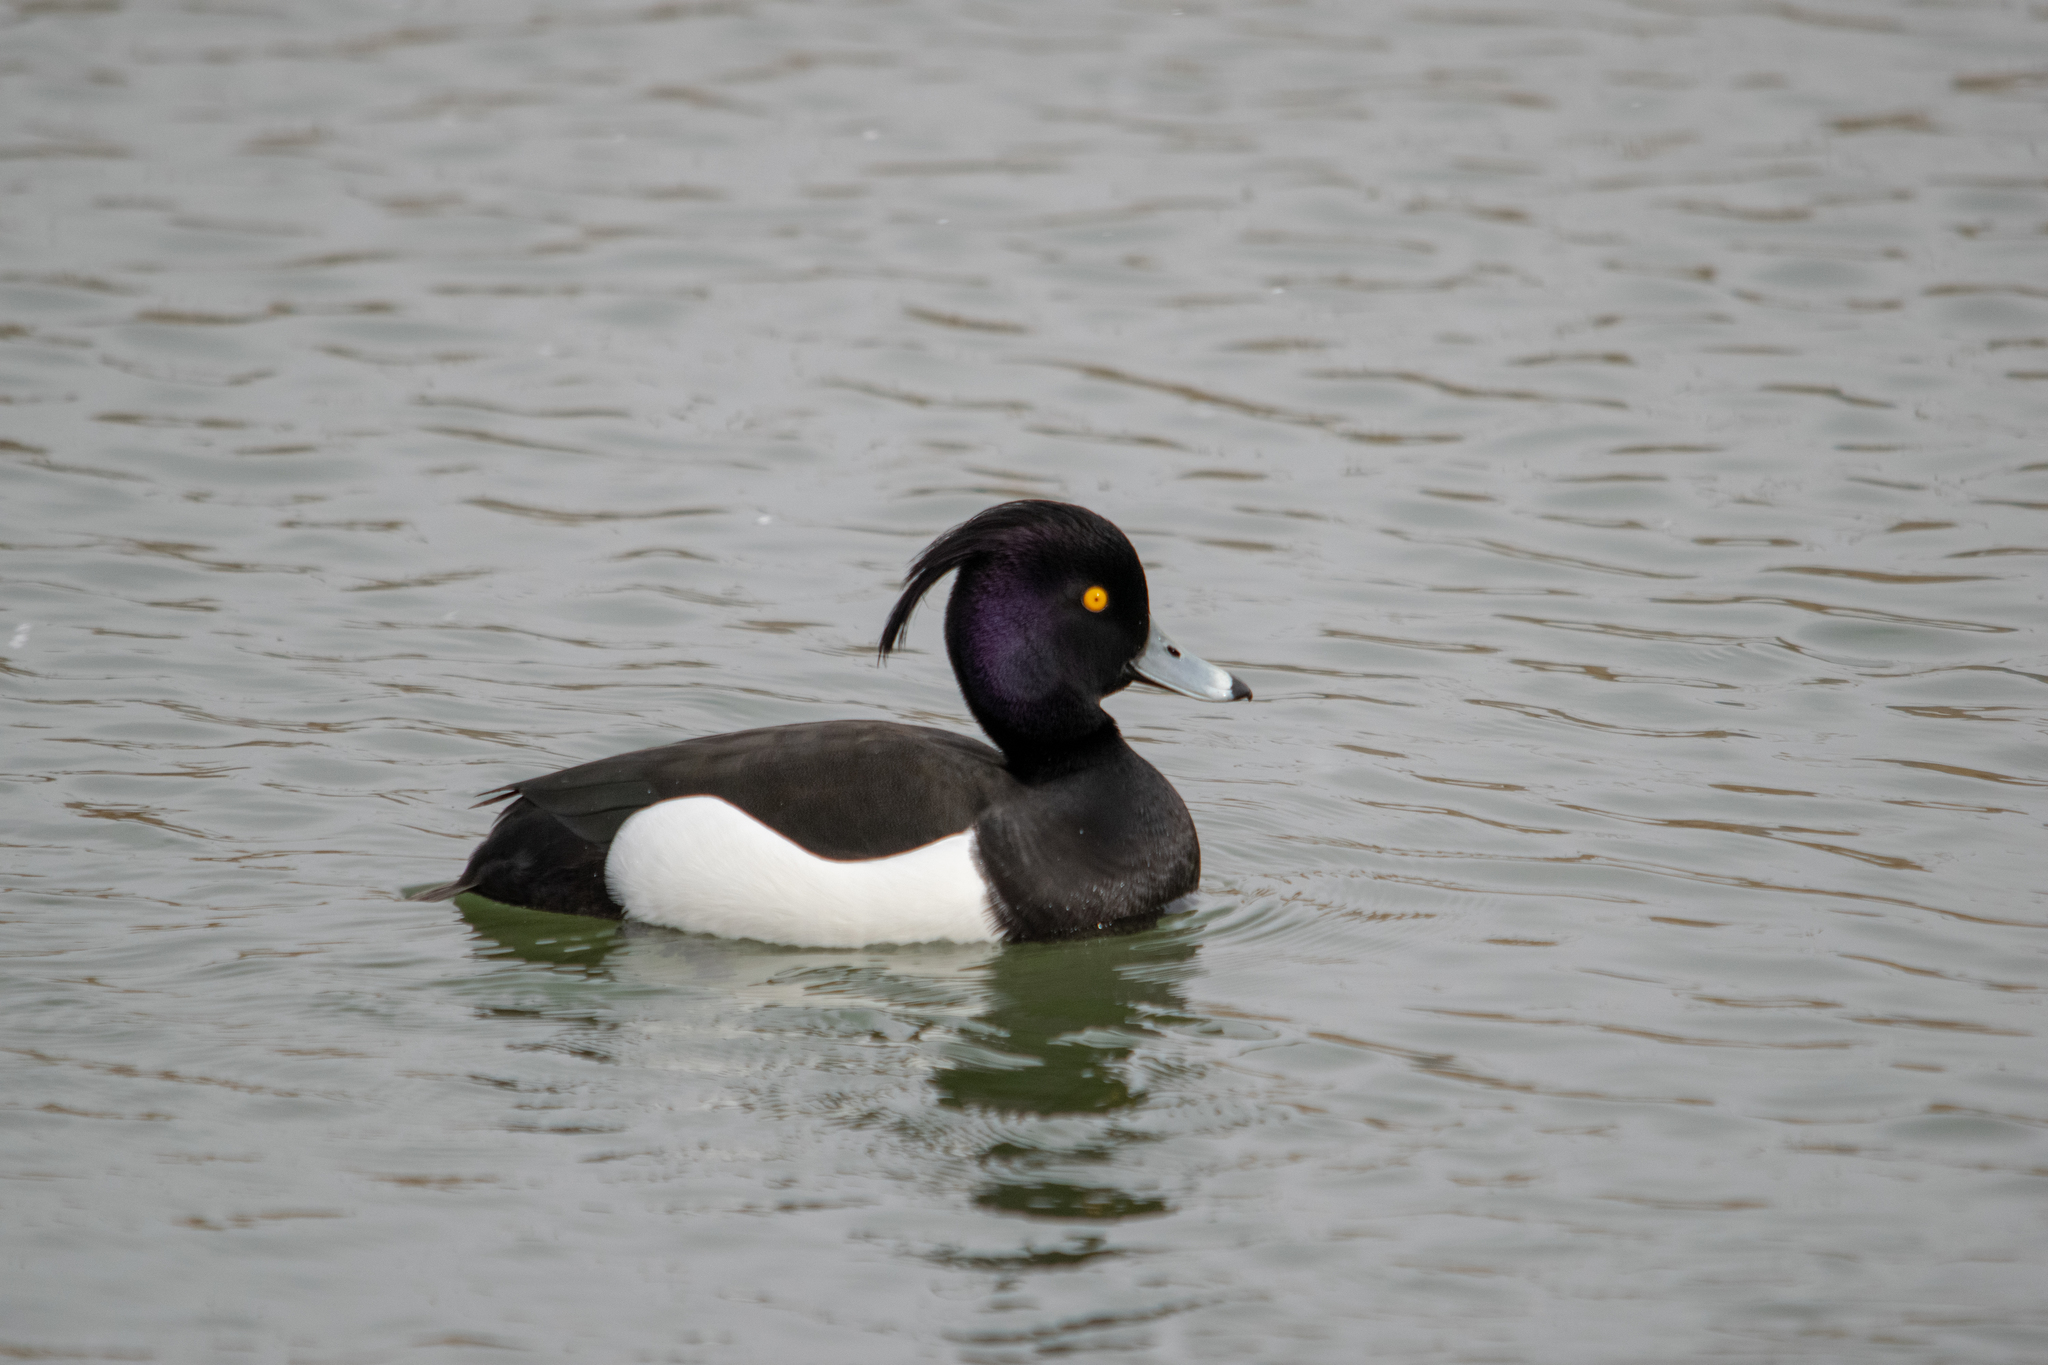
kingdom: Animalia
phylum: Chordata
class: Aves
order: Anseriformes
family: Anatidae
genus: Aythya
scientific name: Aythya fuligula
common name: Tufted duck
